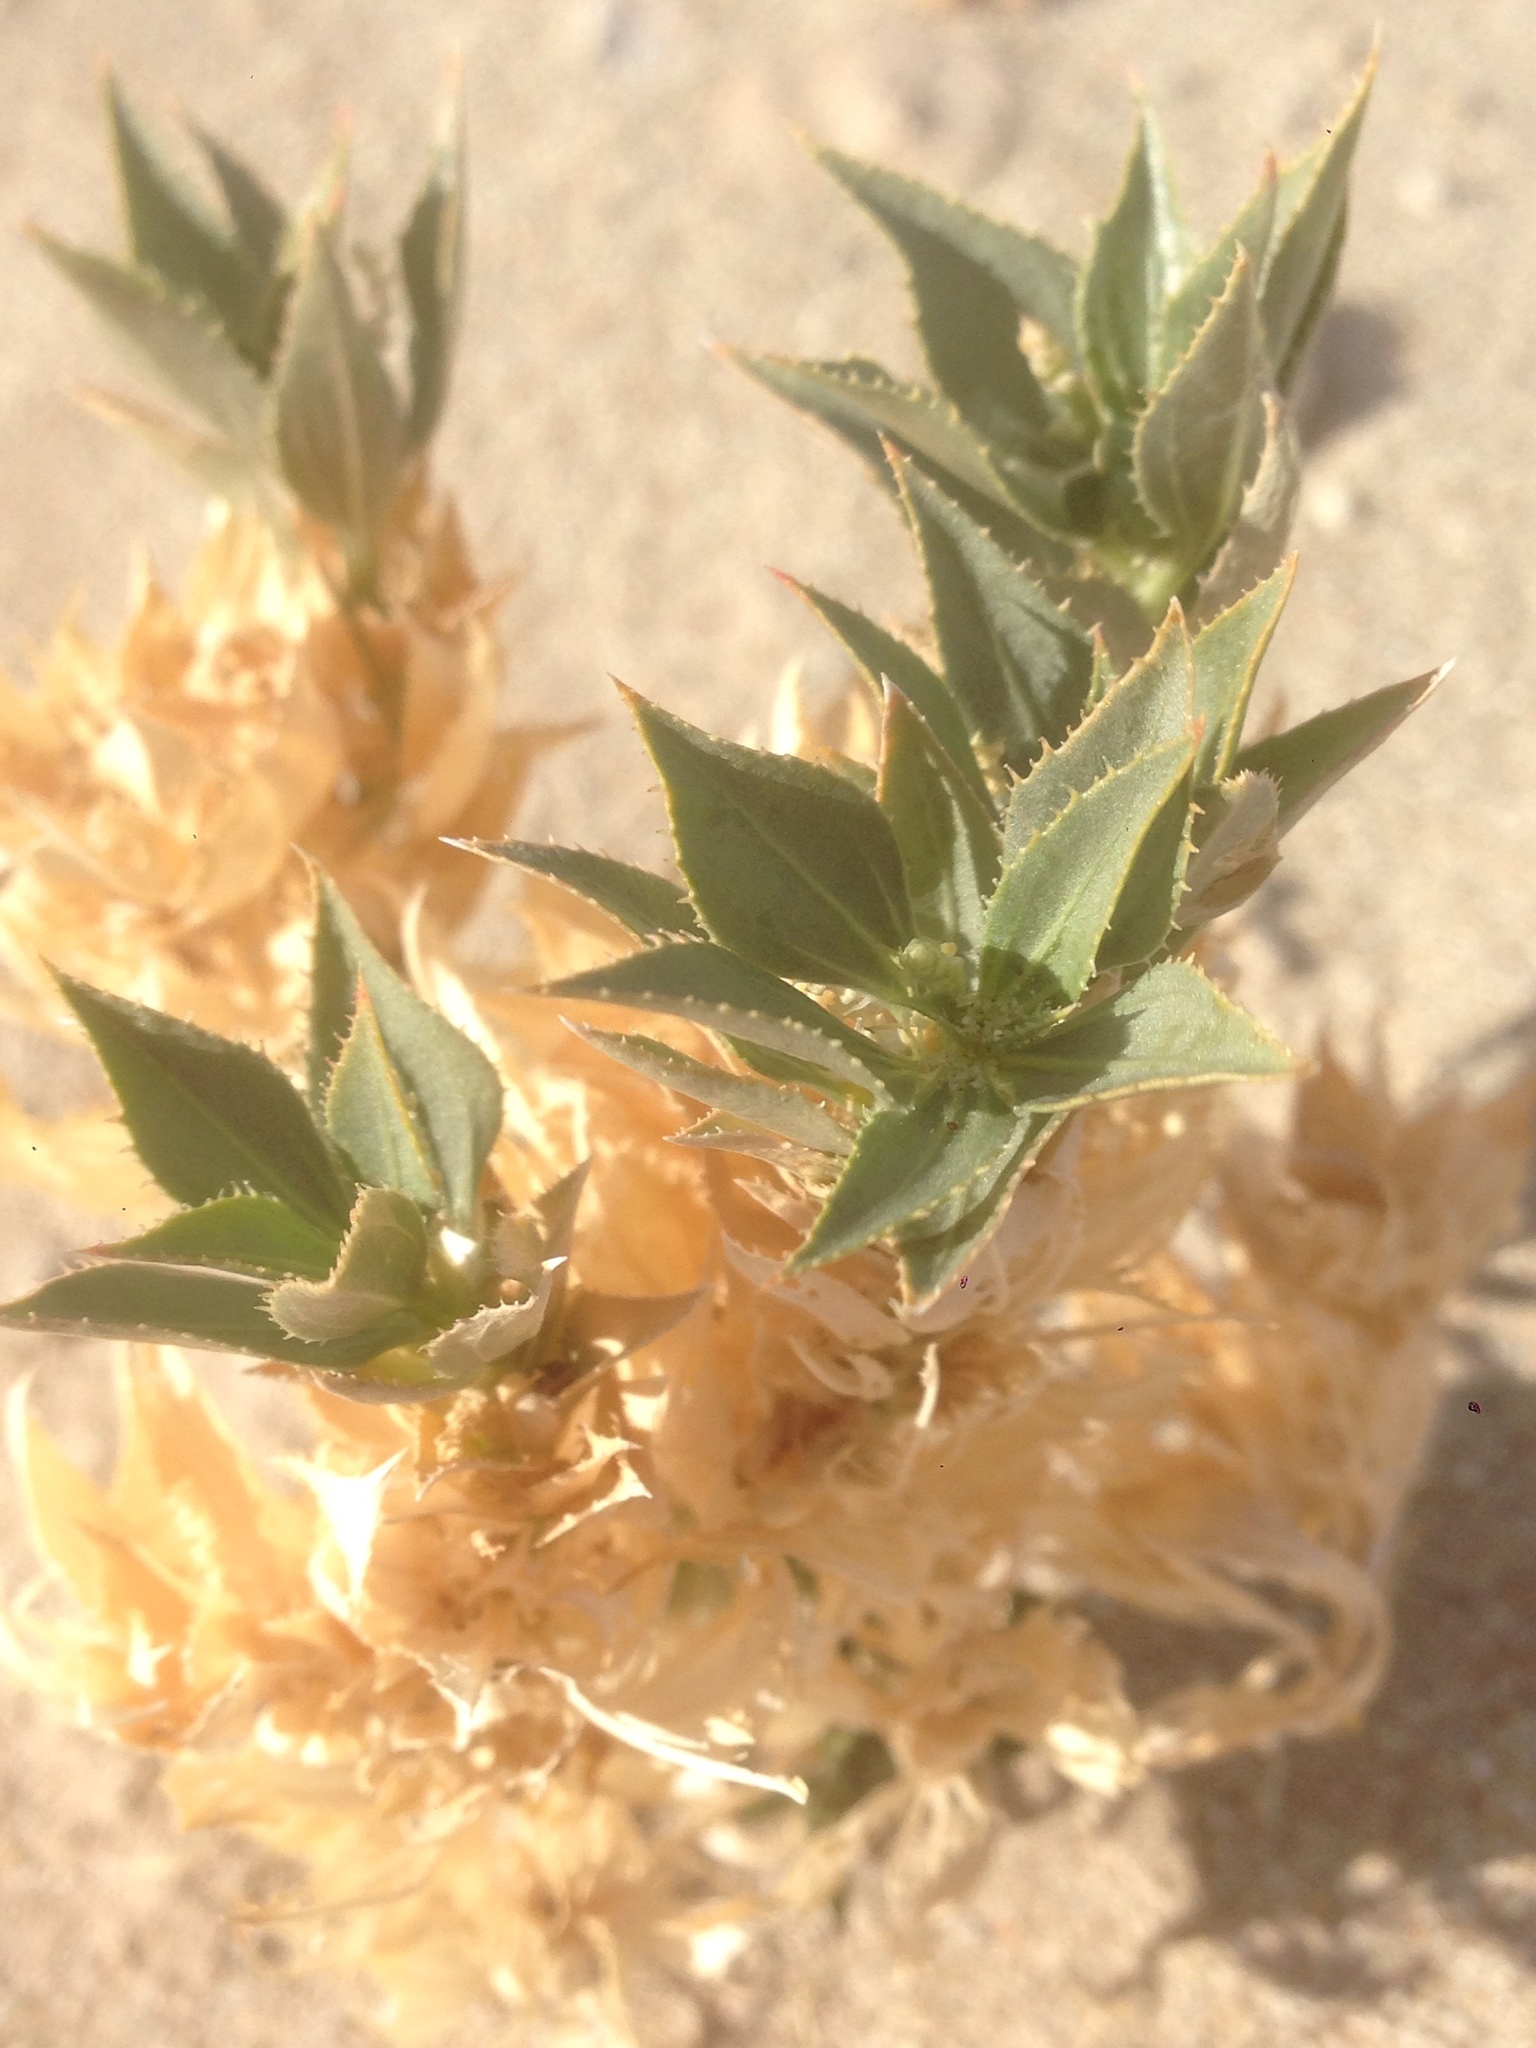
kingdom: Plantae
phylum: Tracheophyta
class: Magnoliopsida
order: Malpighiales
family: Euphorbiaceae
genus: Stillingia
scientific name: Stillingia spinulosa
